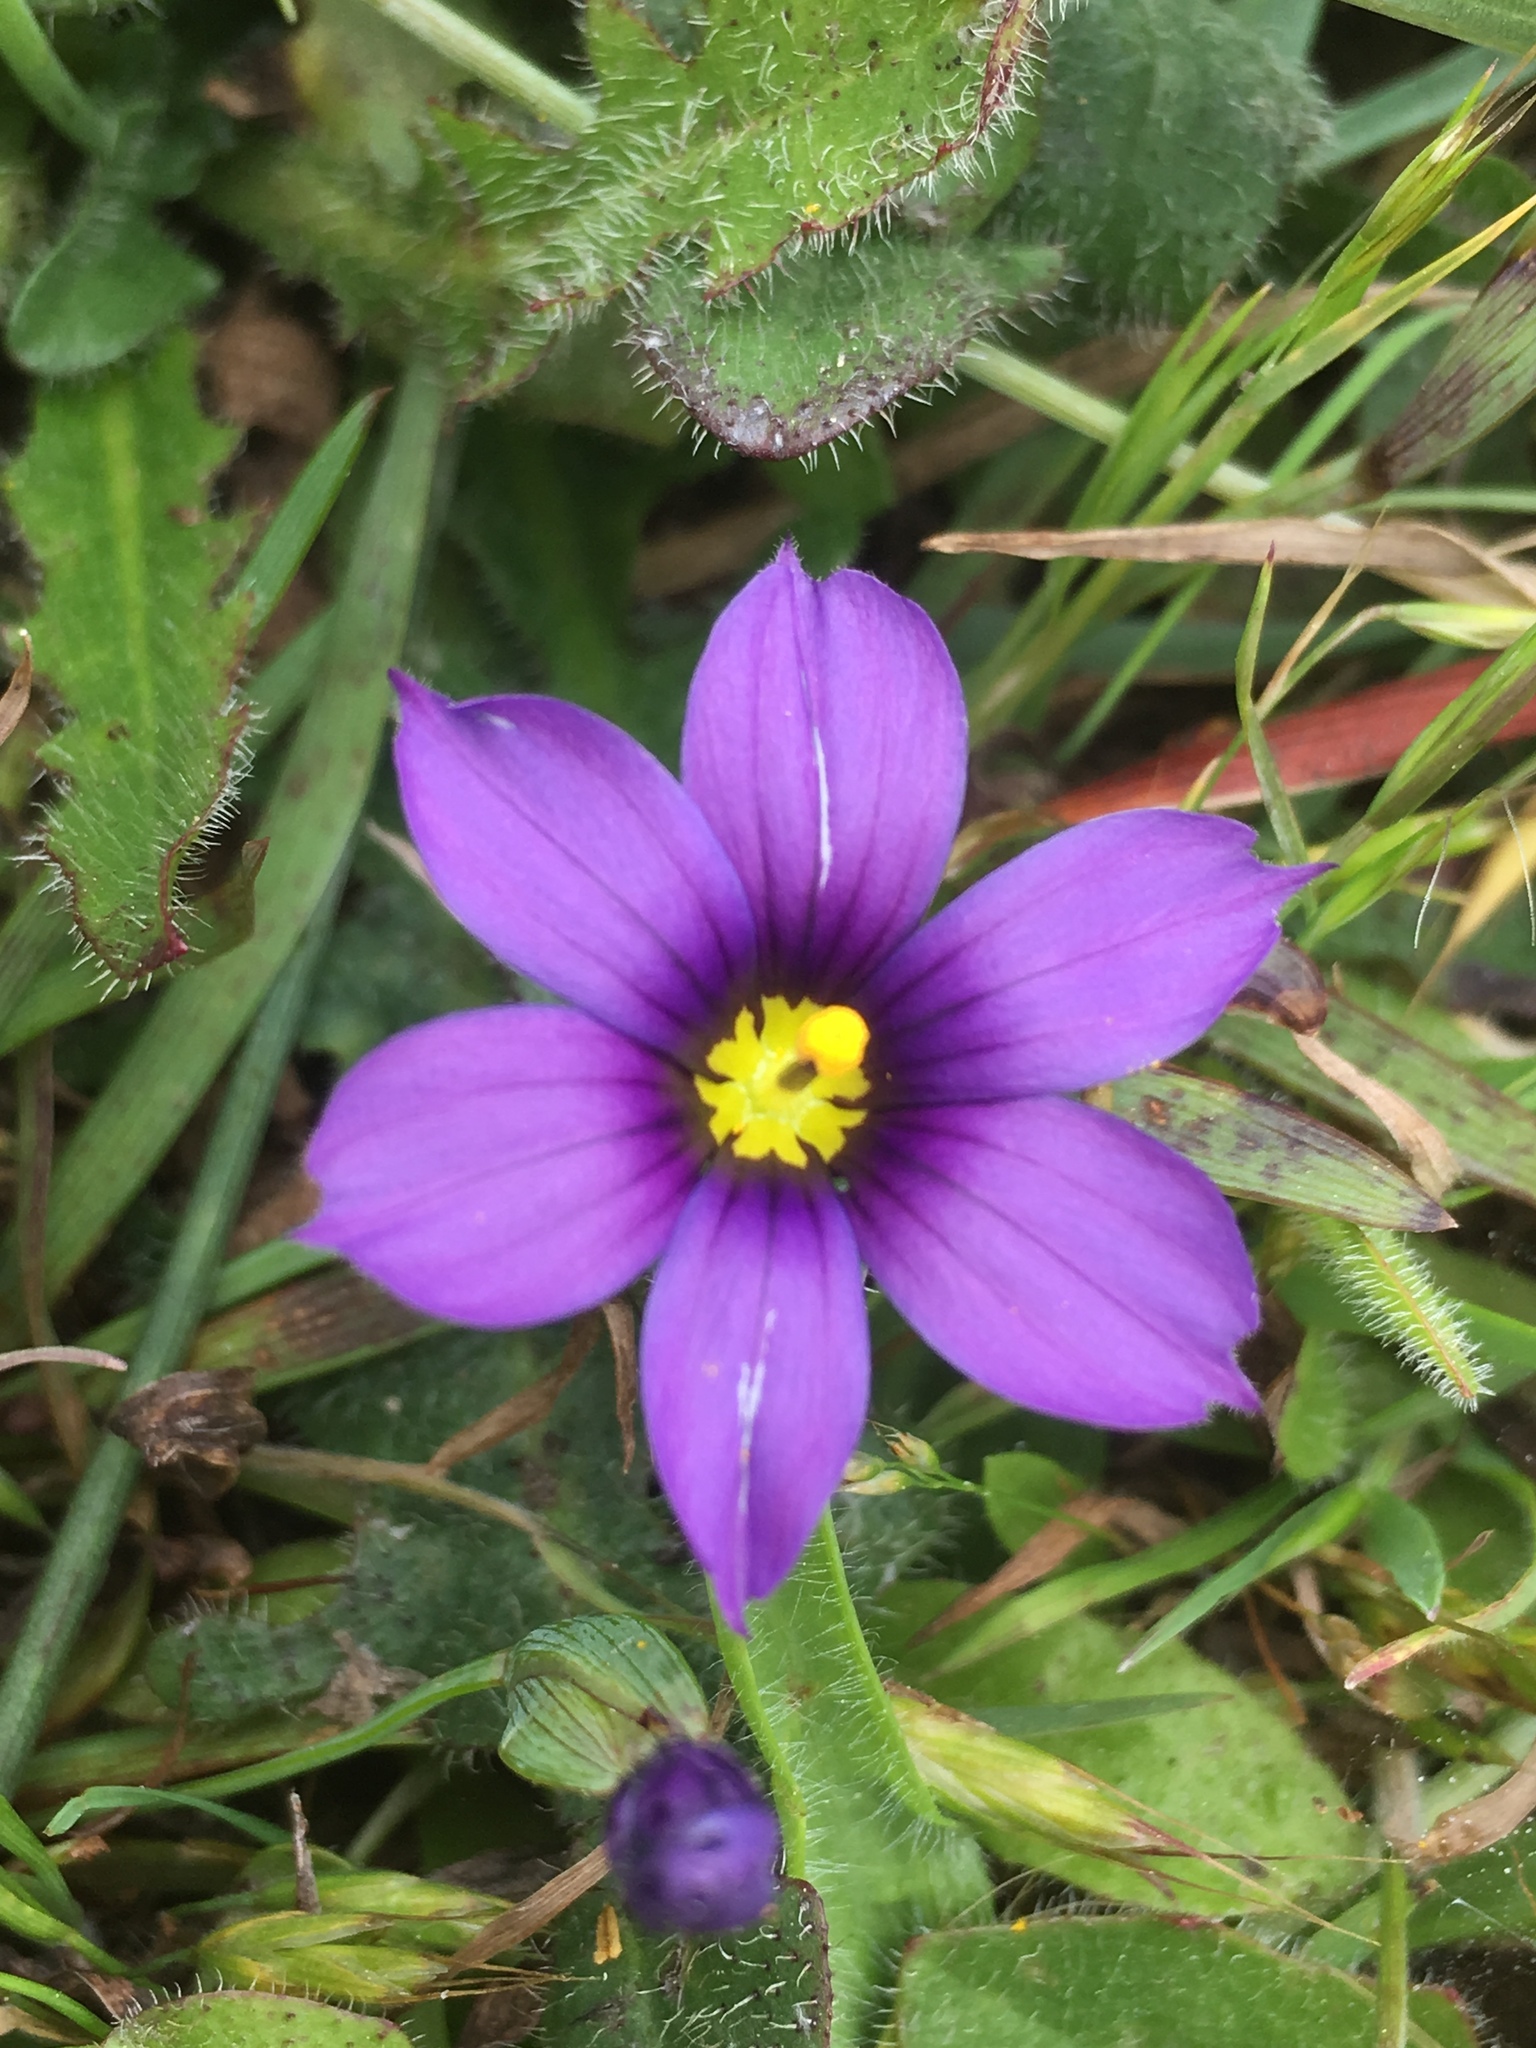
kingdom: Plantae
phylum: Tracheophyta
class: Liliopsida
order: Asparagales
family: Iridaceae
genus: Sisyrinchium
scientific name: Sisyrinchium bellum
